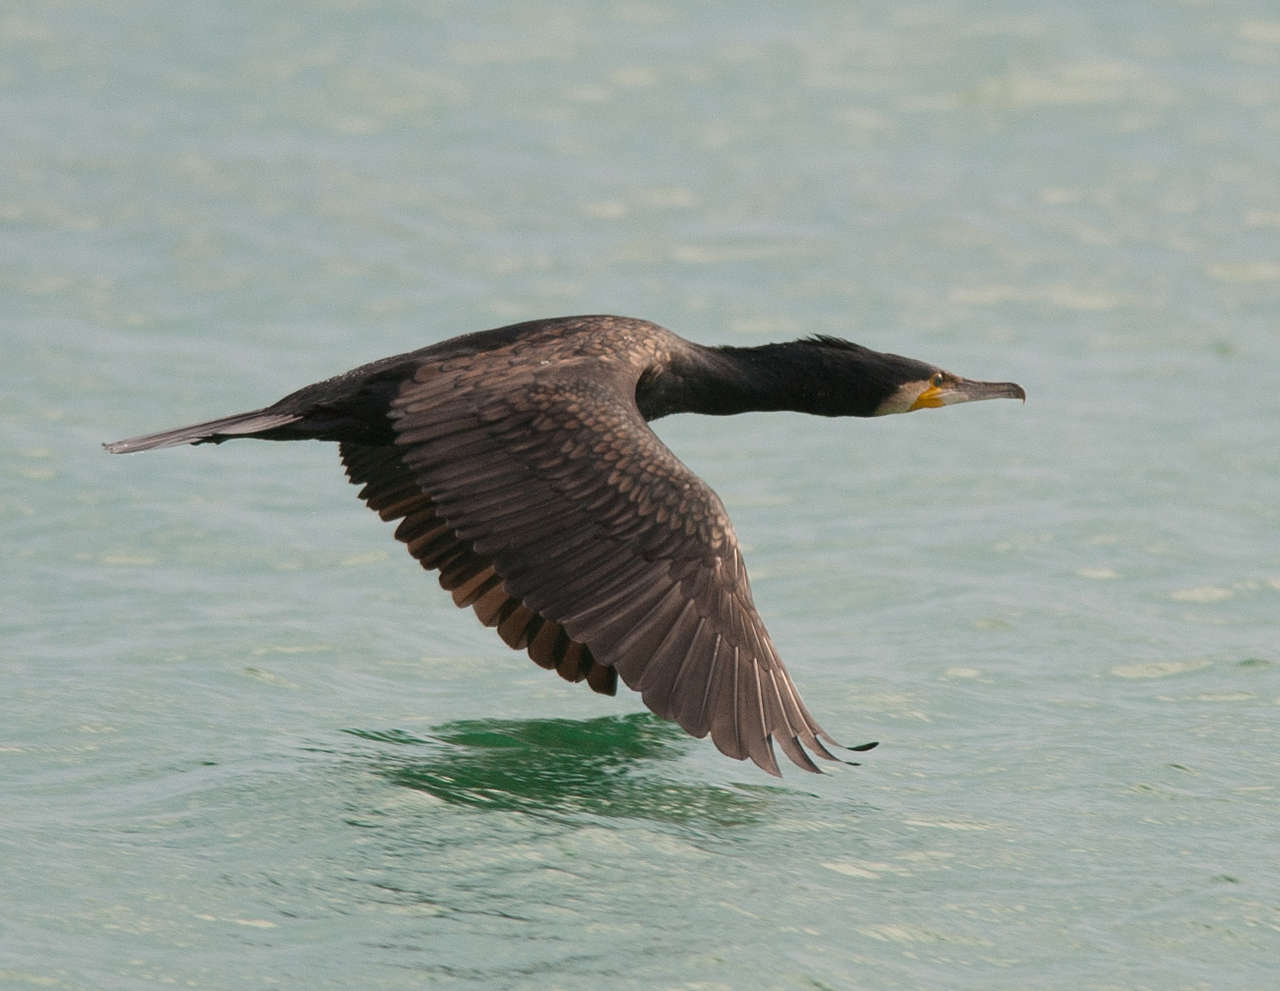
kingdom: Animalia
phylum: Chordata
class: Aves
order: Suliformes
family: Phalacrocoracidae
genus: Phalacrocorax
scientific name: Phalacrocorax carbo
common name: Great cormorant
